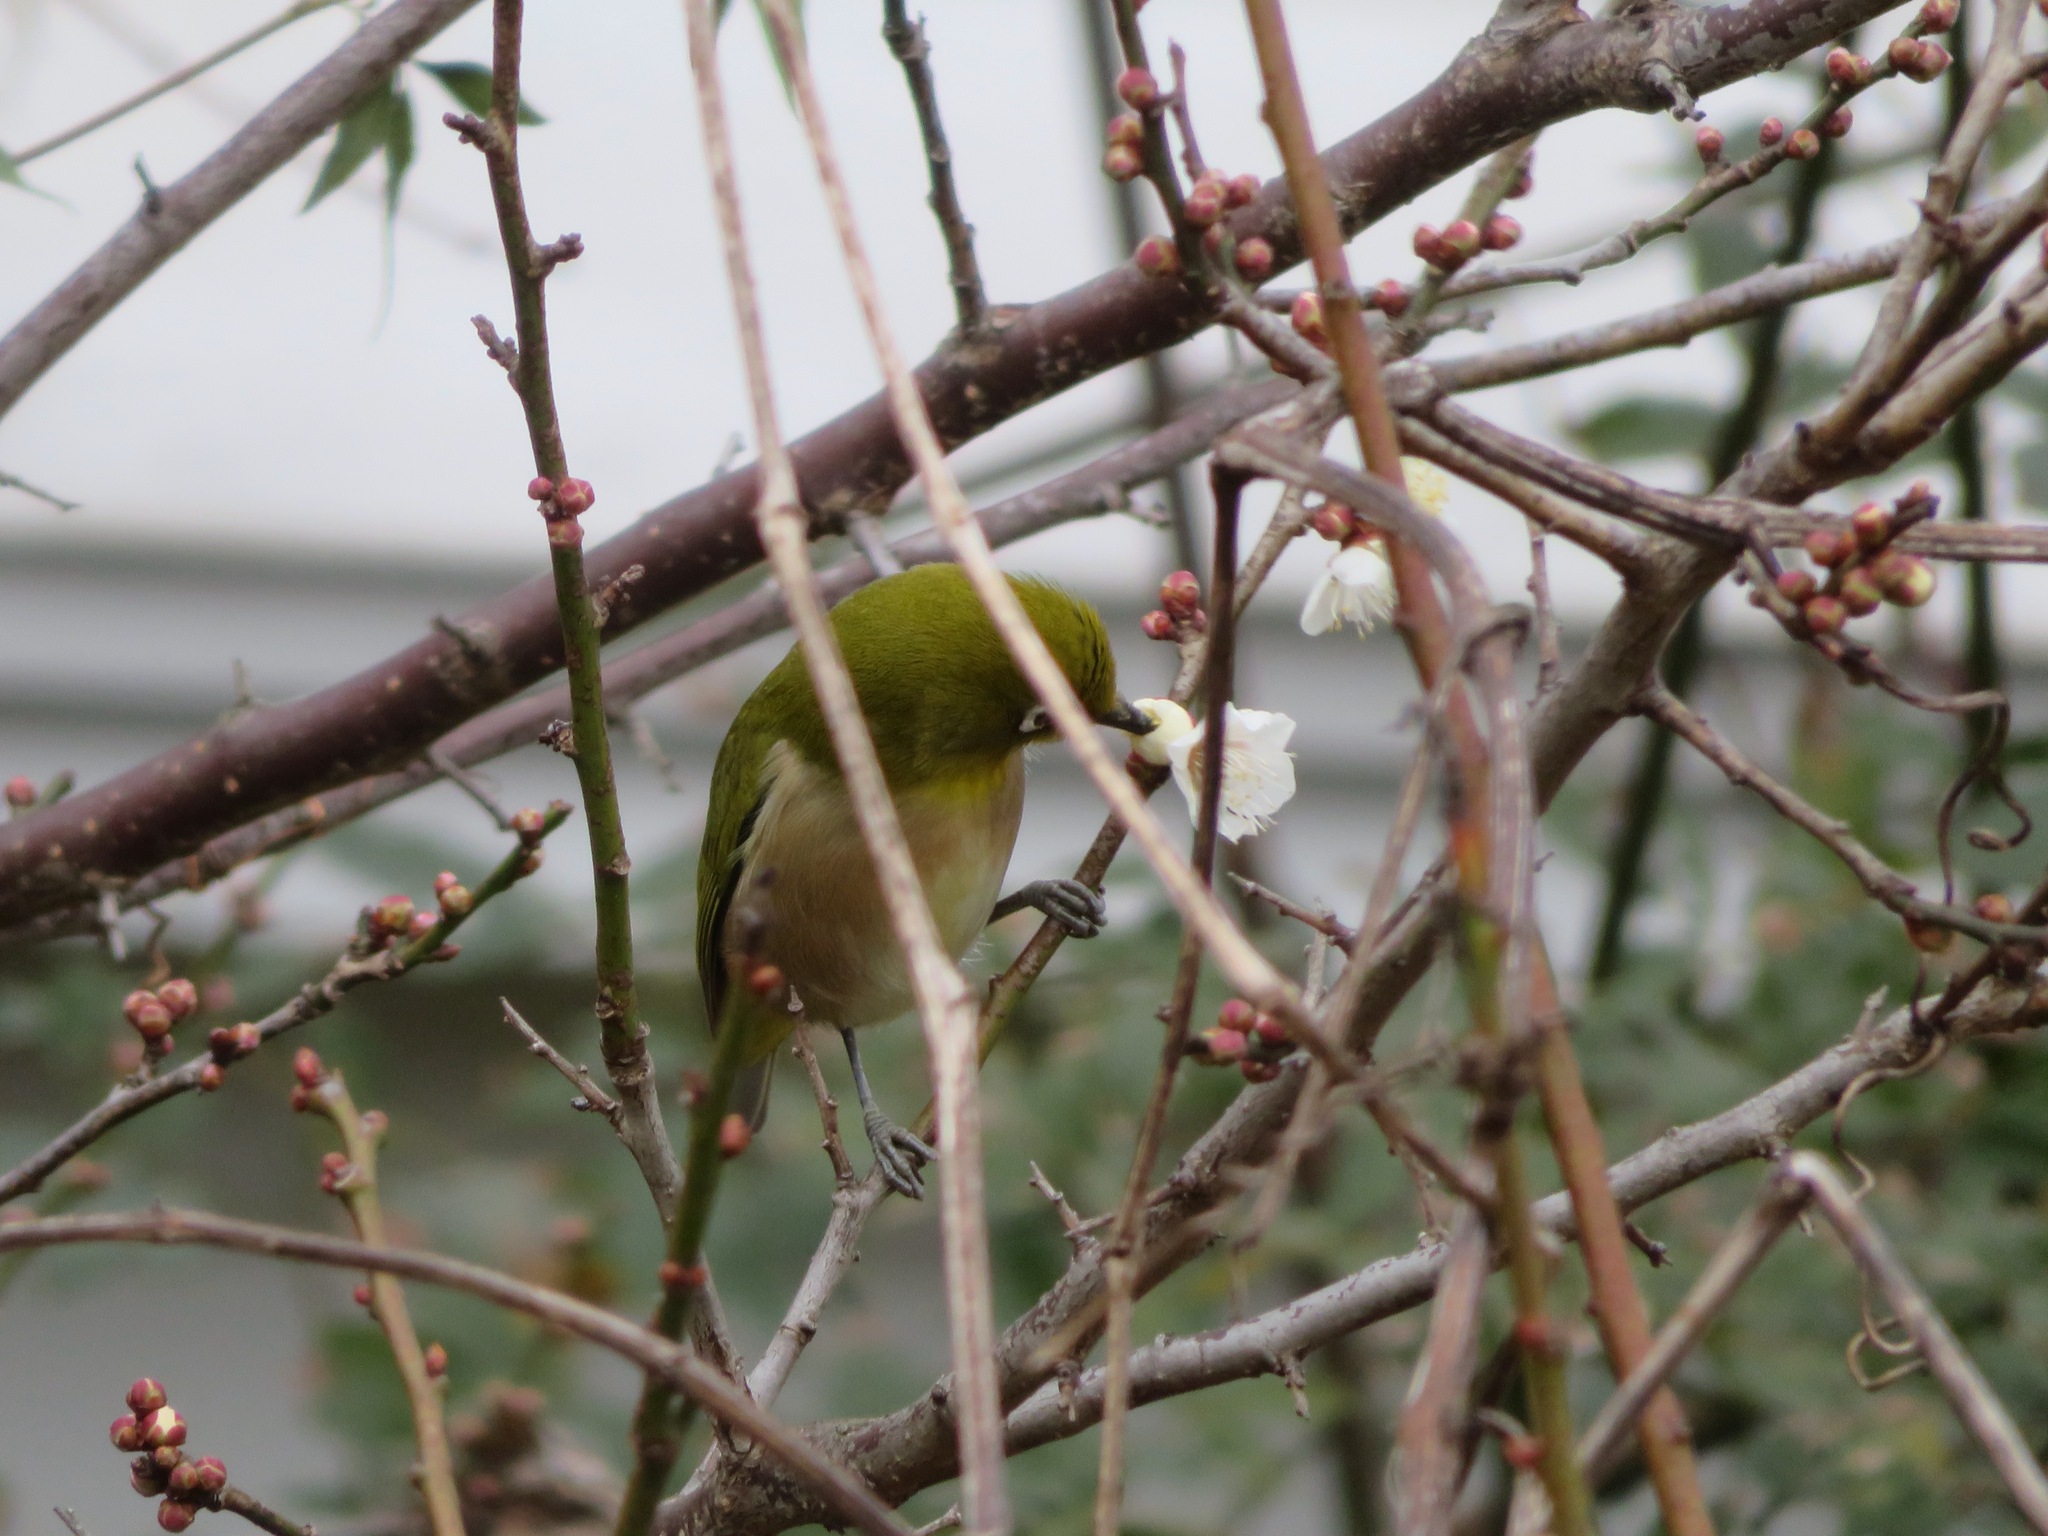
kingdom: Animalia
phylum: Chordata
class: Aves
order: Passeriformes
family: Zosteropidae
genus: Zosterops
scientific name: Zosterops japonicus
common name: Japanese white-eye
